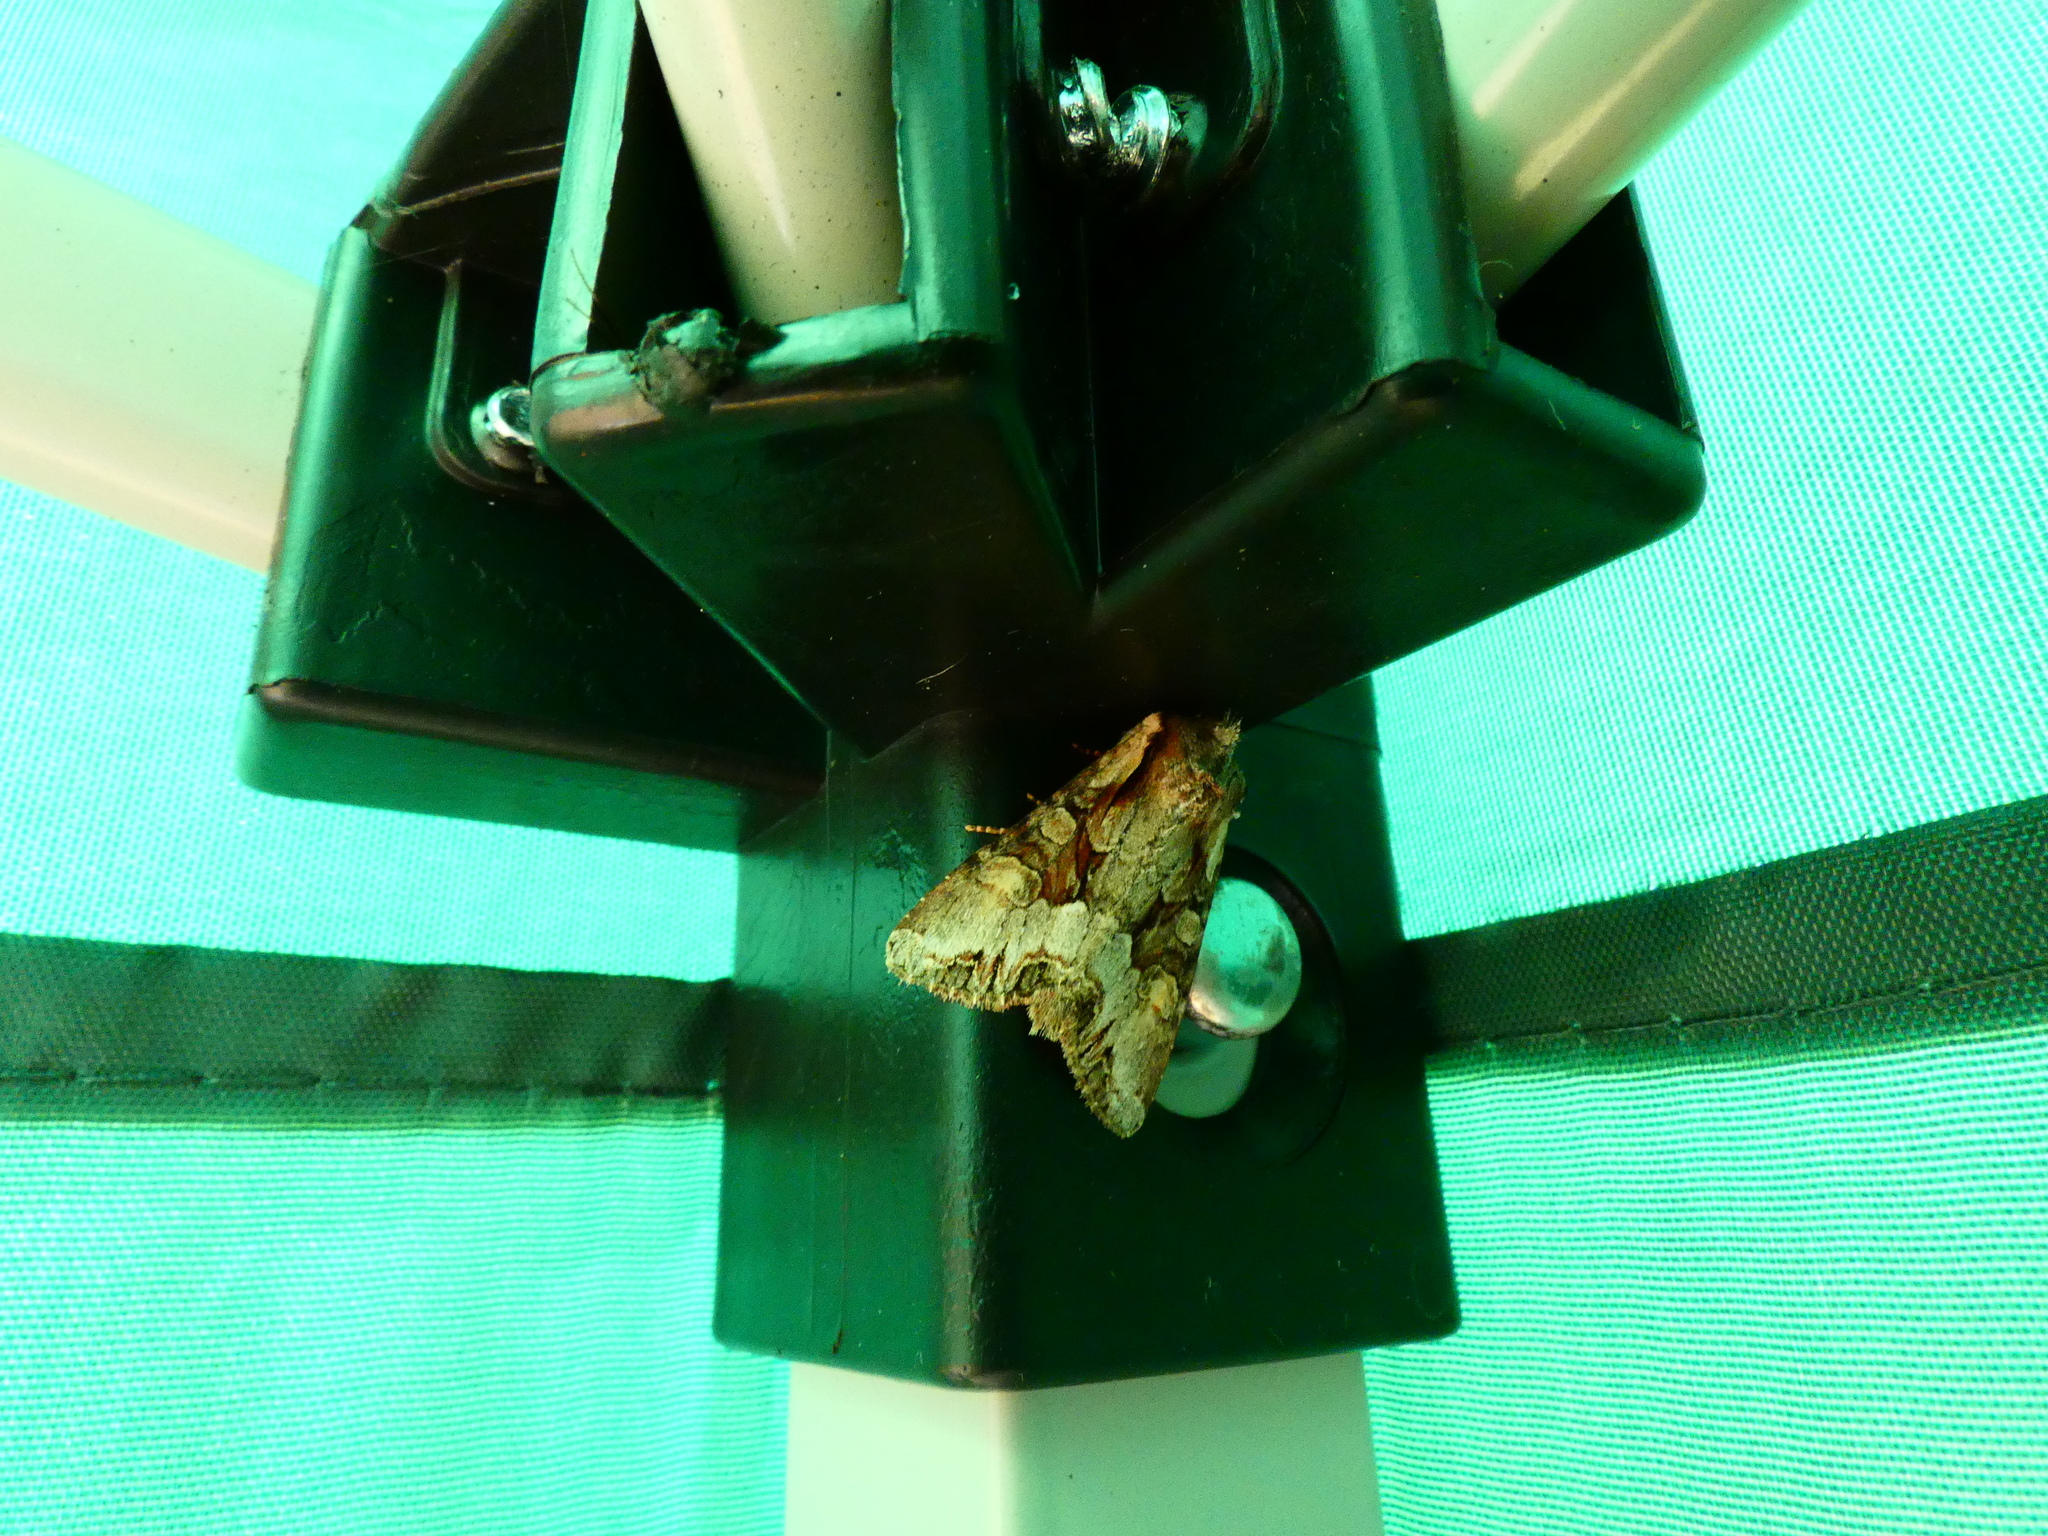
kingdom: Animalia
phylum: Arthropoda
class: Insecta
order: Lepidoptera
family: Noctuidae
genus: Lacanobia
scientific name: Lacanobia w-latinum
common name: Light brocade
